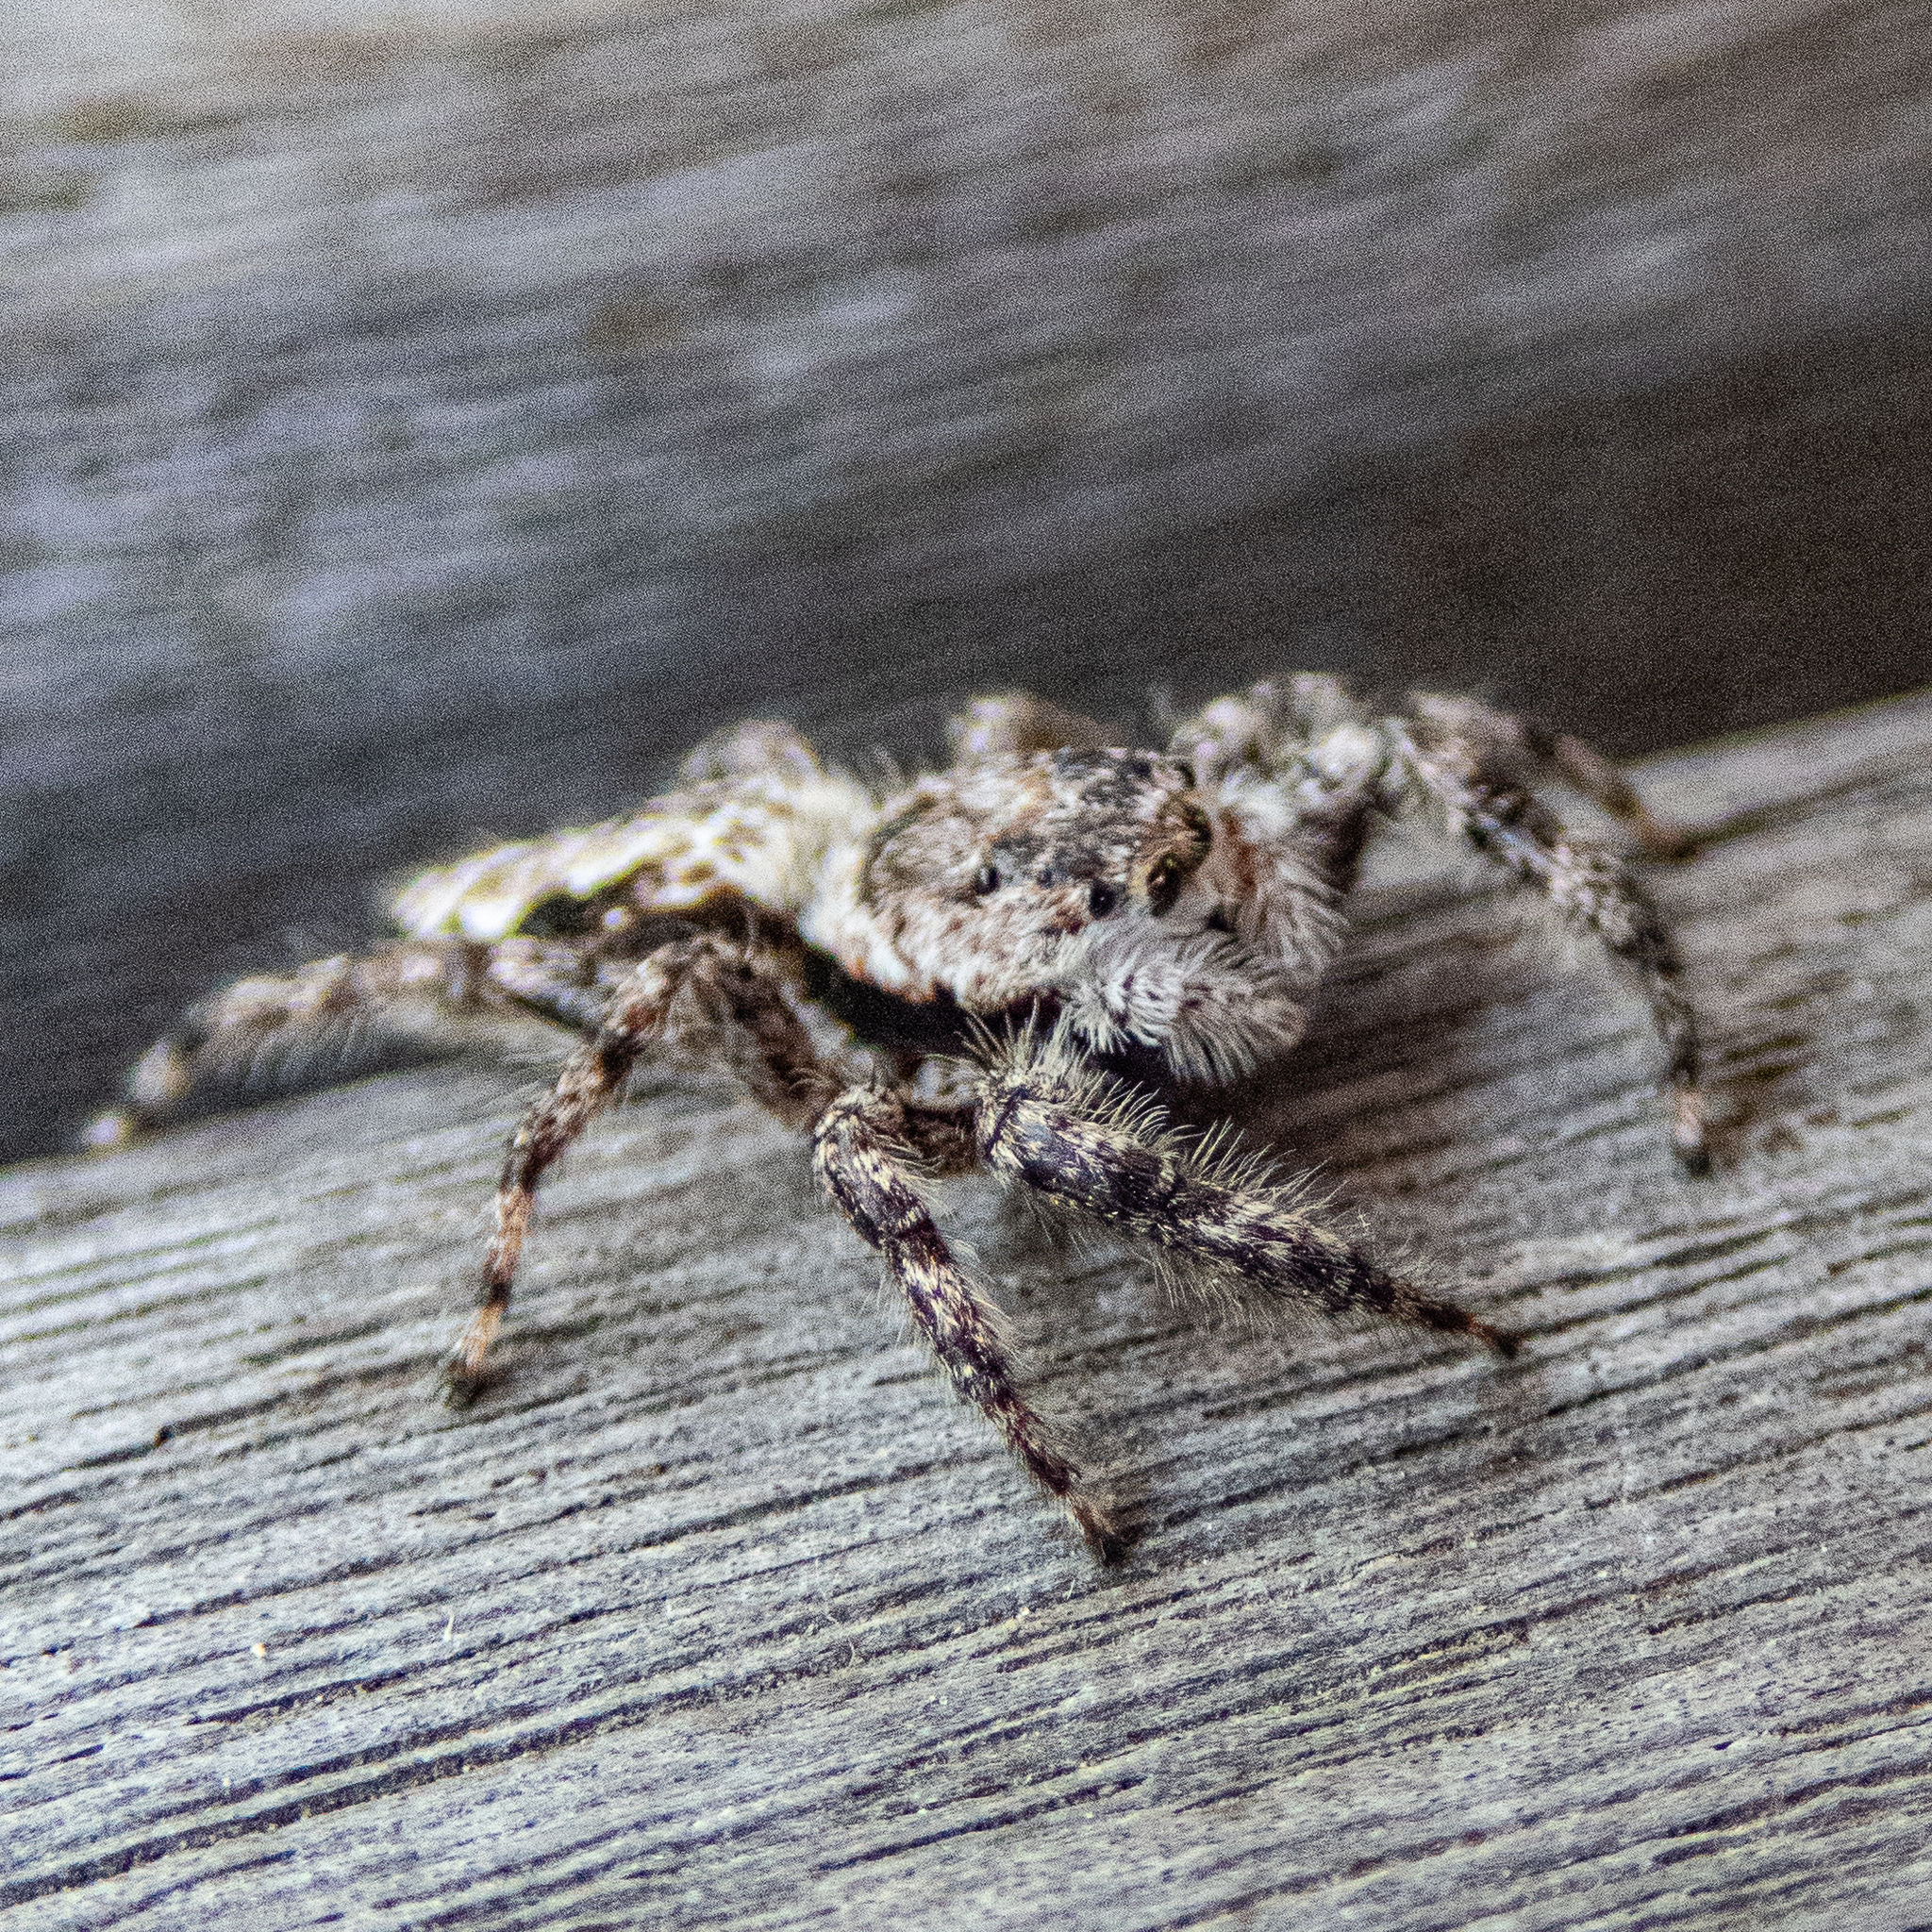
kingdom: Animalia
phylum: Arthropoda
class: Arachnida
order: Araneae
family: Salticidae
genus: Platycryptus
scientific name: Platycryptus undatus
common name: Tan jumping spider
